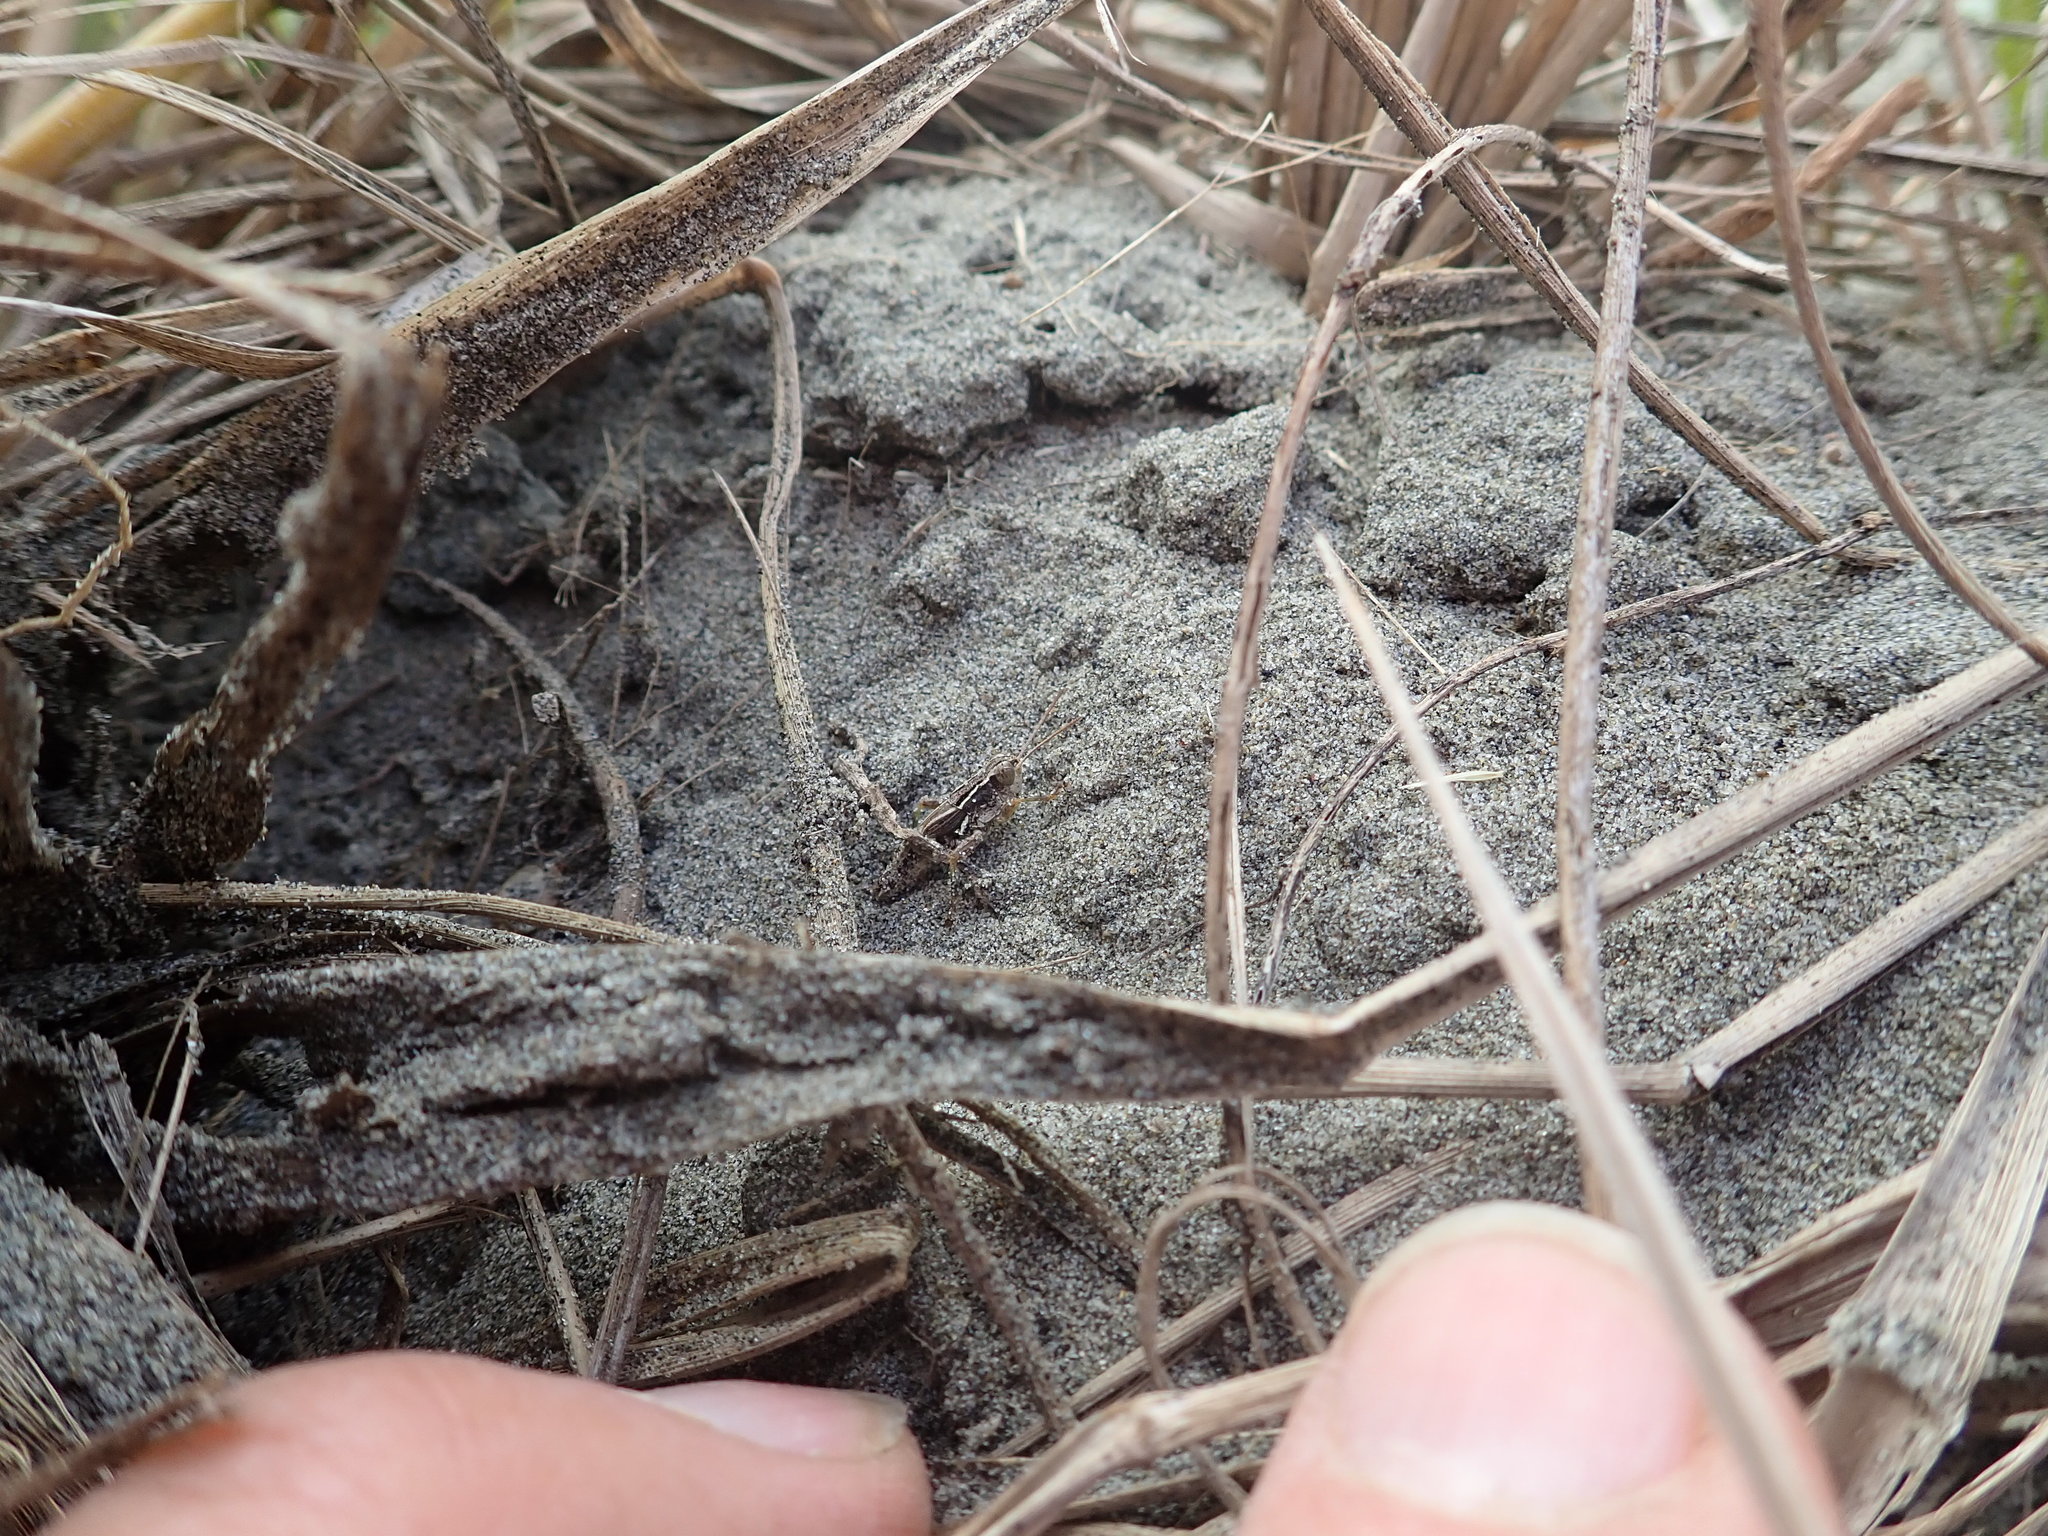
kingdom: Animalia
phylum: Arthropoda
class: Insecta
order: Orthoptera
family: Acrididae
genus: Phaulacridium
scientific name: Phaulacridium marginale
